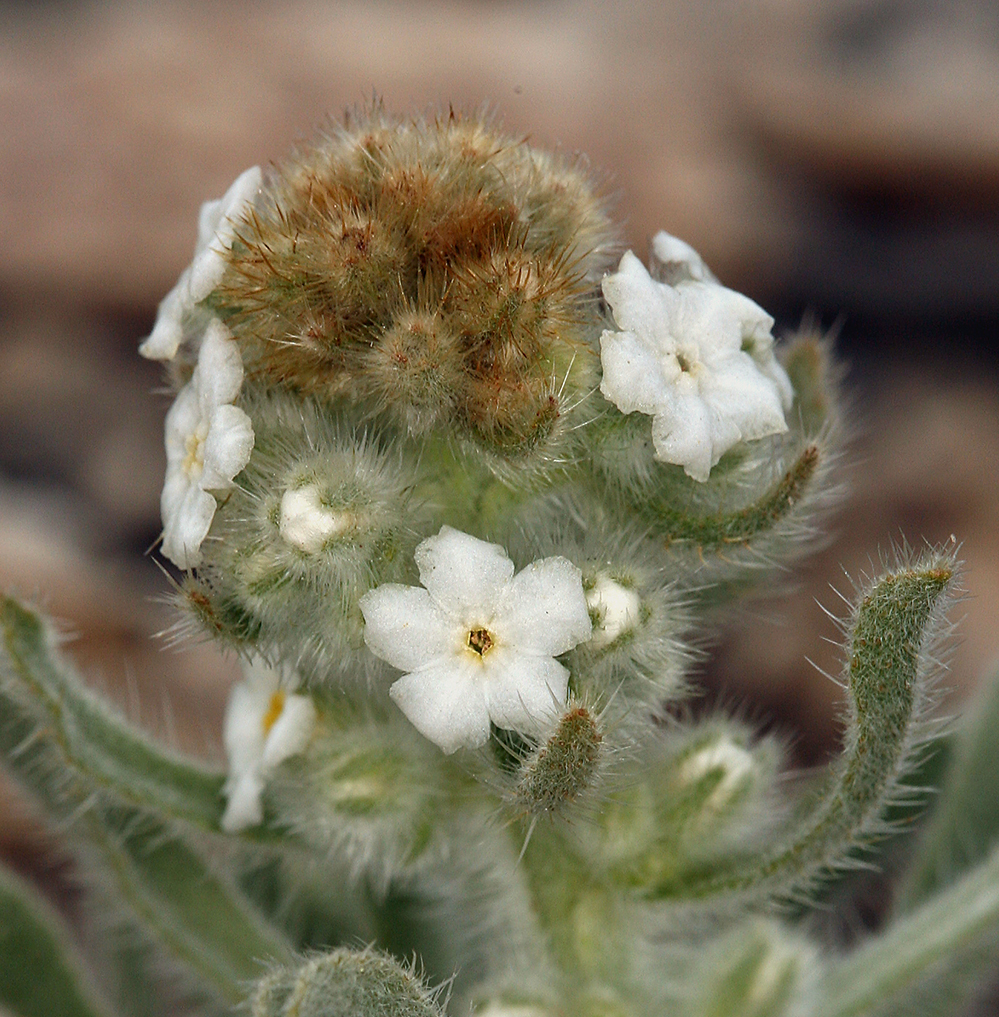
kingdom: Plantae
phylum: Tracheophyta
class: Magnoliopsida
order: Boraginales
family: Boraginaceae
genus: Oreocarya
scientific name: Oreocarya hoffmannii
